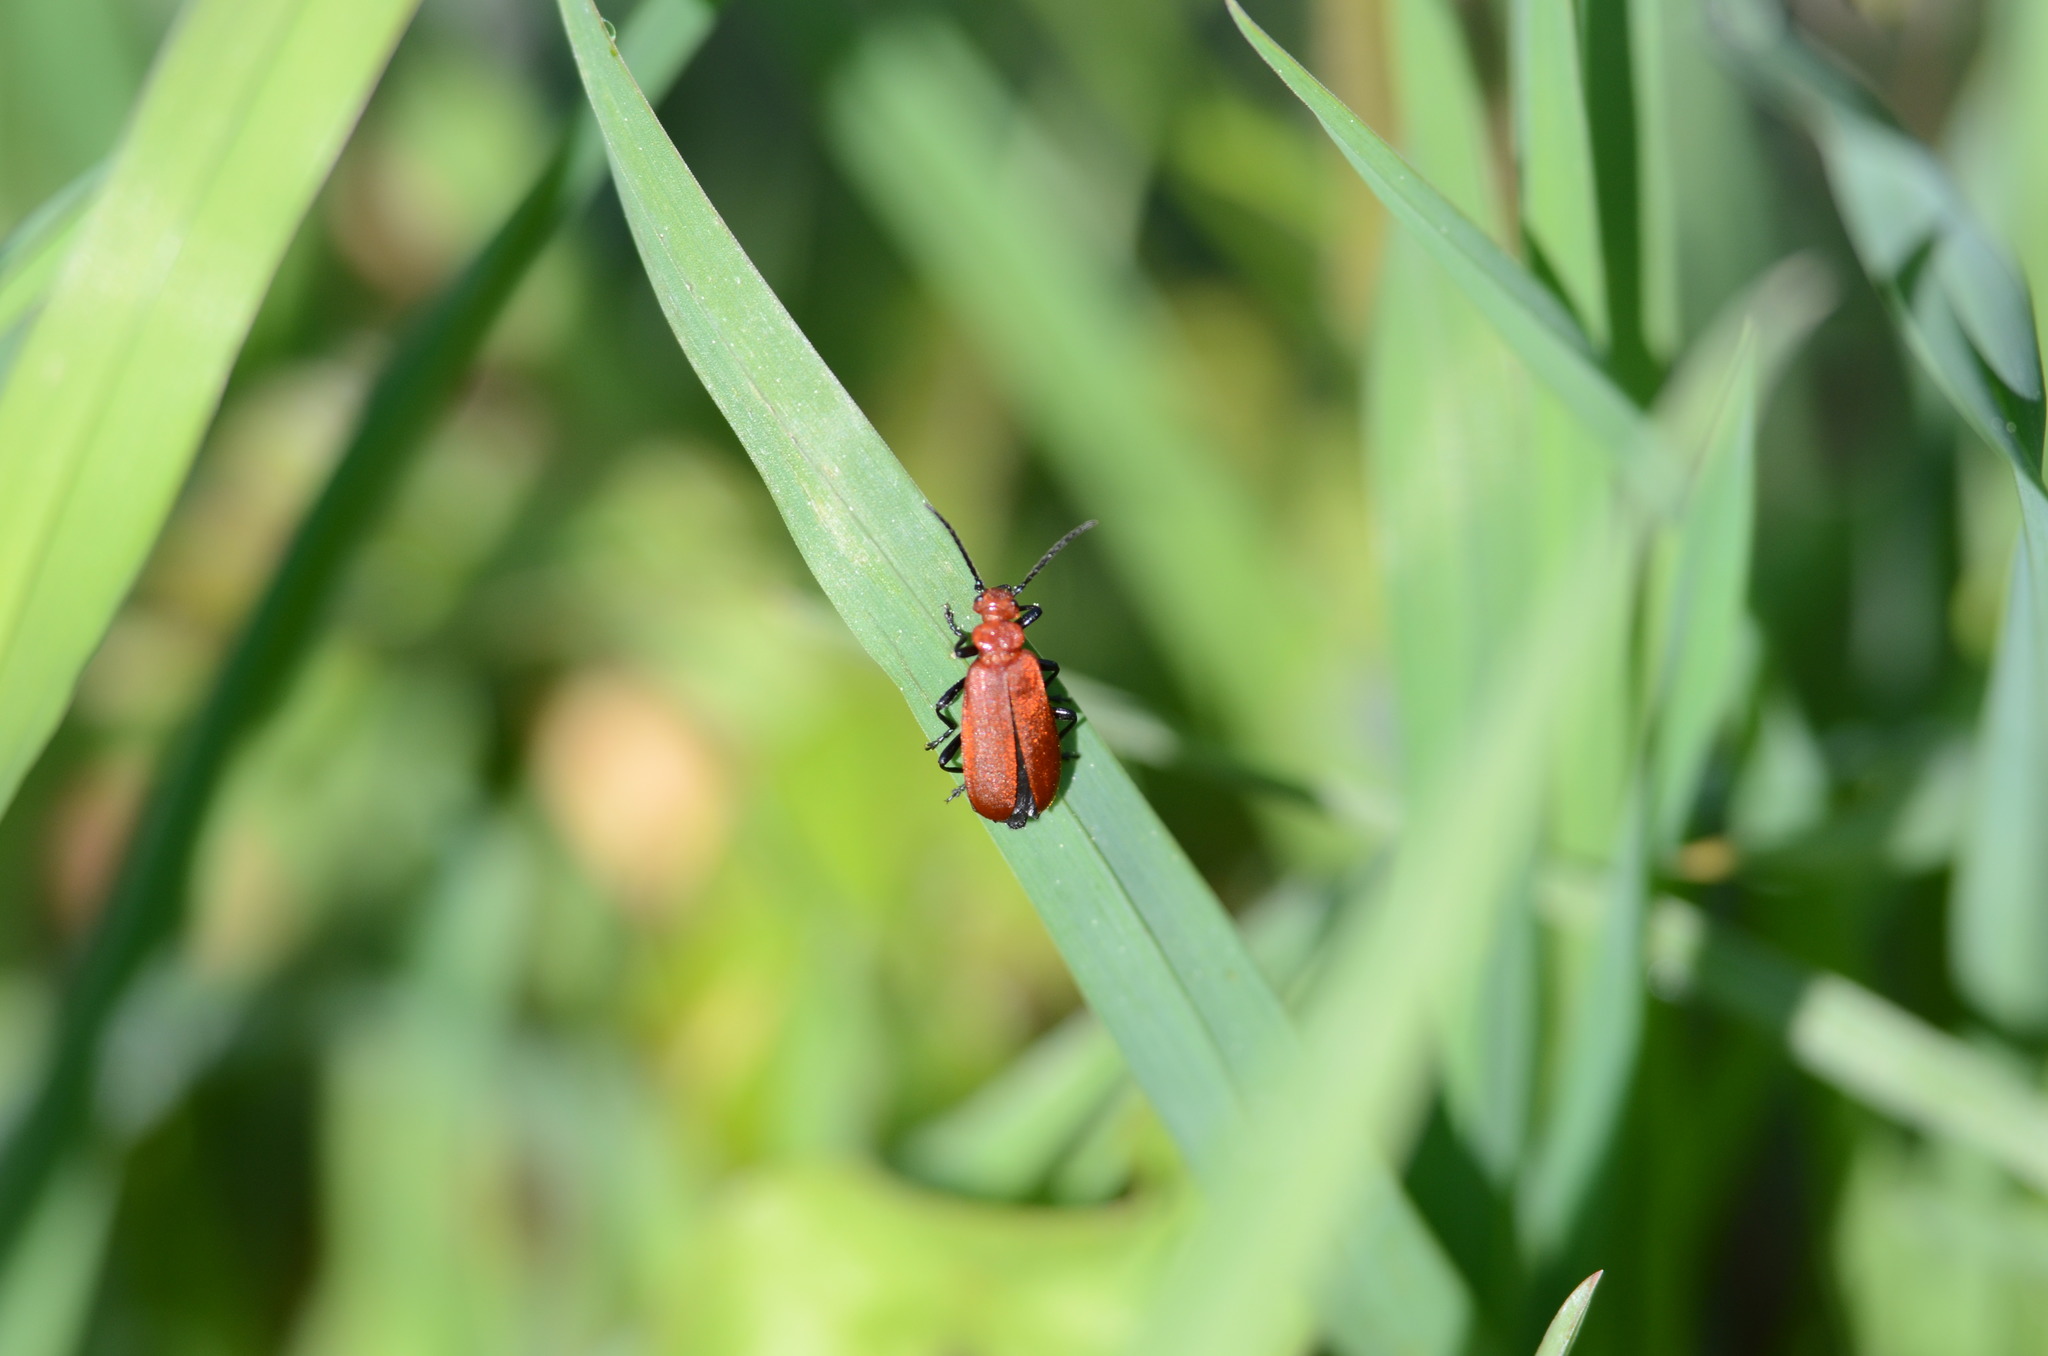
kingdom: Animalia
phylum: Arthropoda
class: Insecta
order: Coleoptera
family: Pyrochroidae
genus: Pyrochroa
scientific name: Pyrochroa serraticornis
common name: Red-headed cardinal beetle
